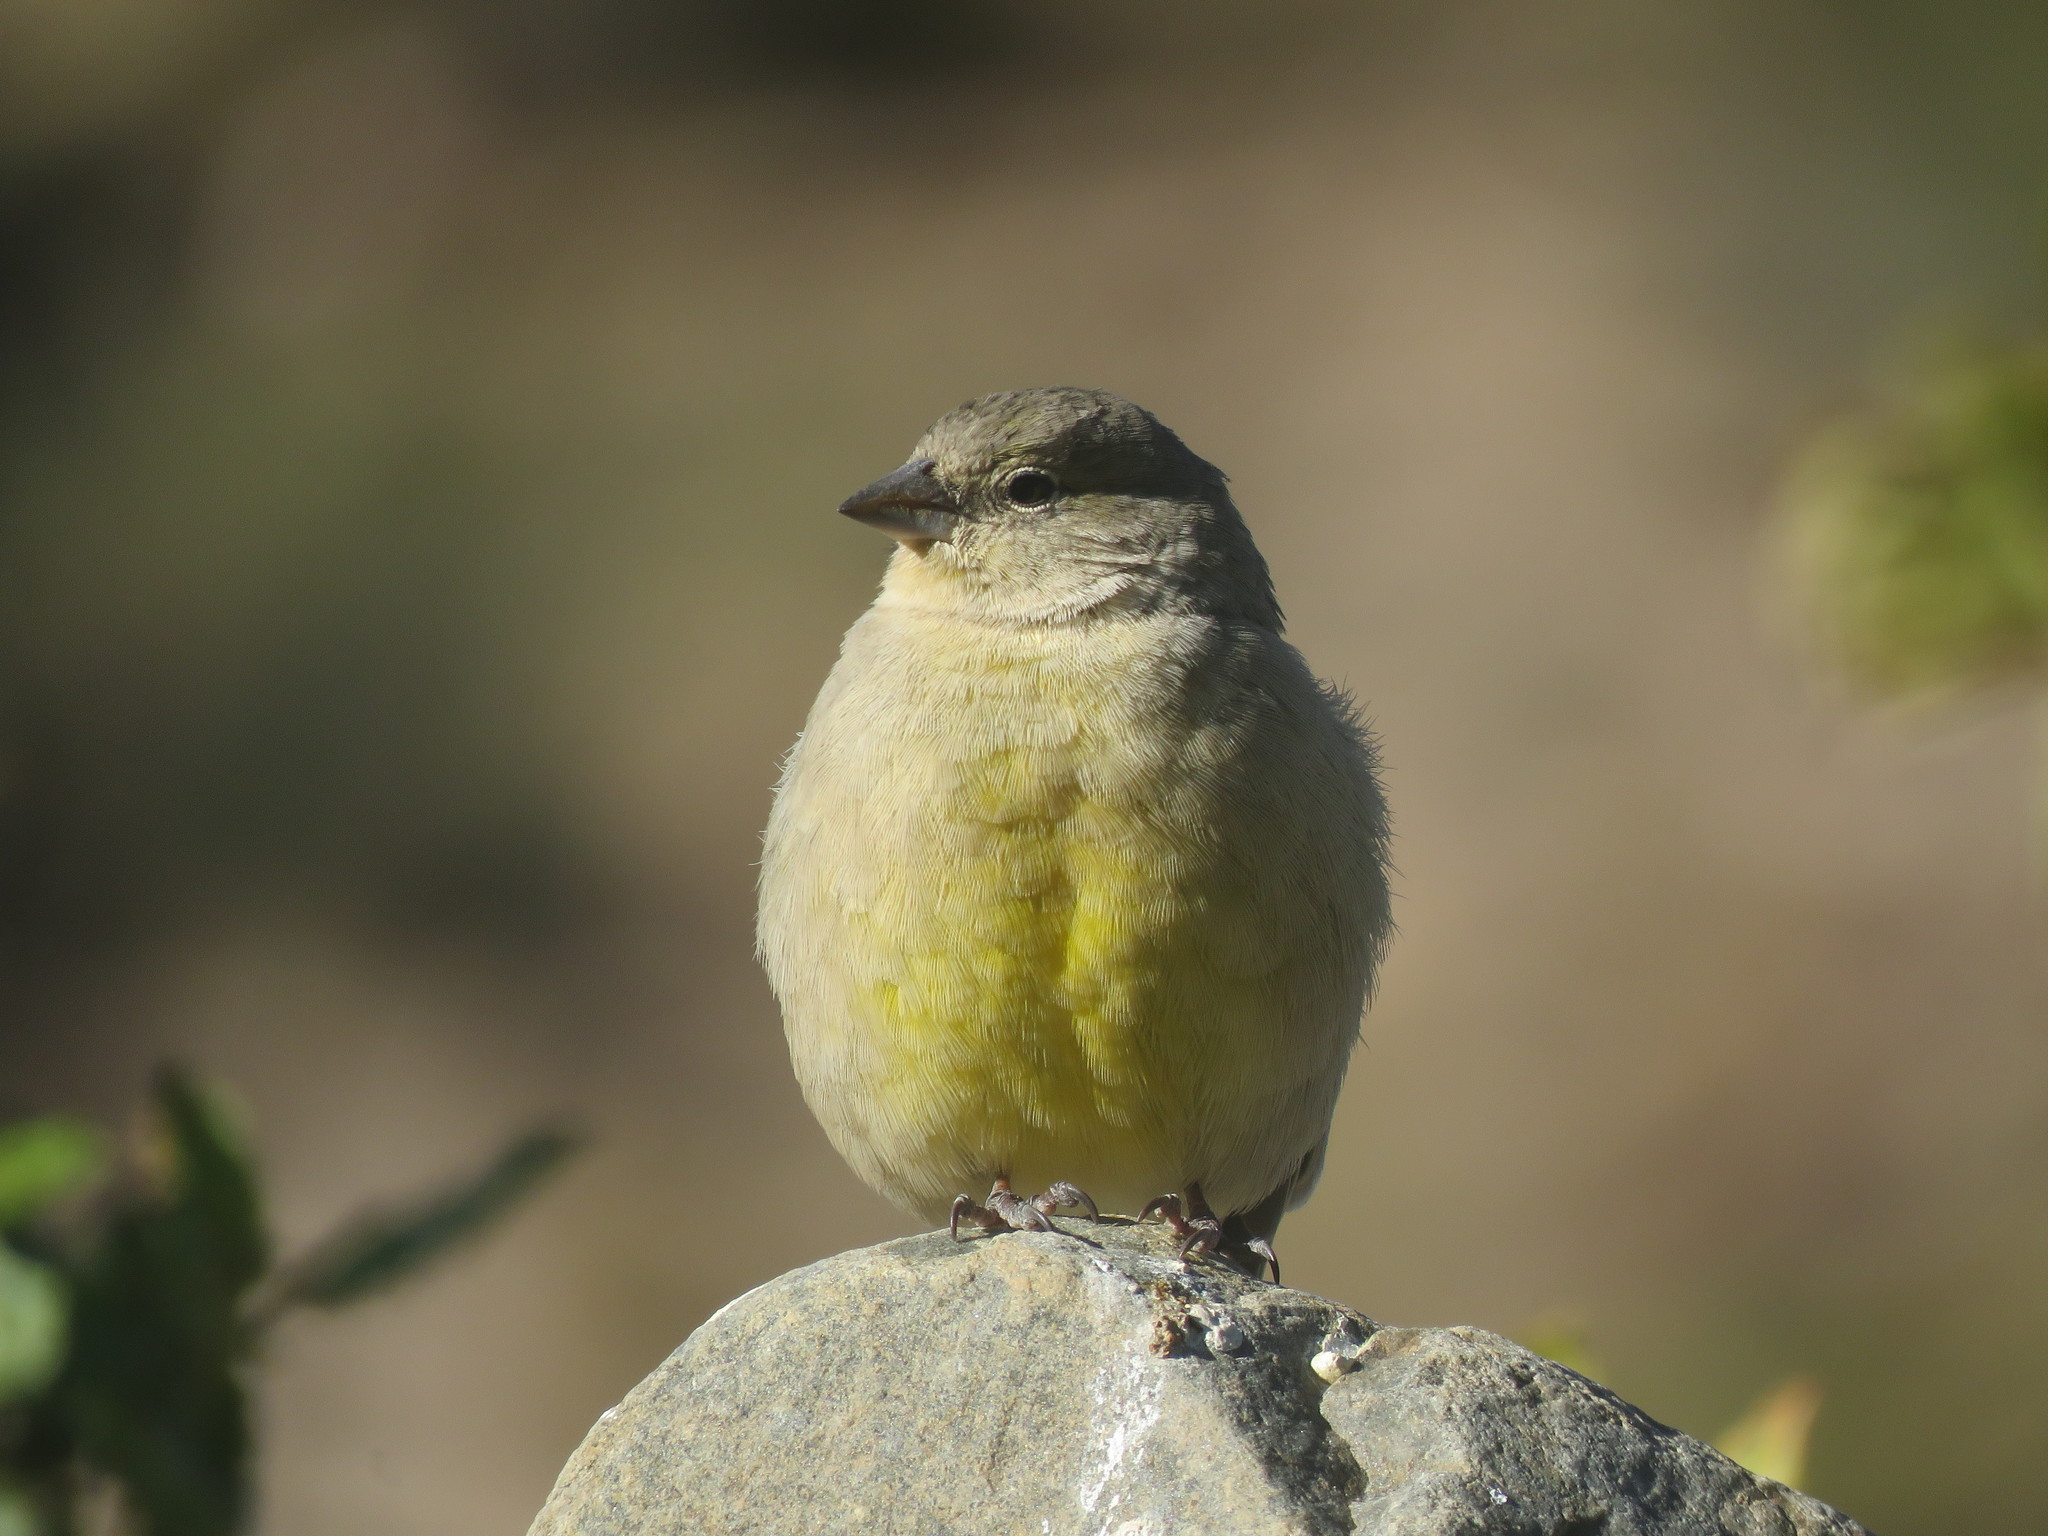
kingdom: Animalia
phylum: Chordata
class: Aves
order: Passeriformes
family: Thraupidae
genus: Sicalis
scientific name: Sicalis olivascens
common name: Greenish yellow finch
